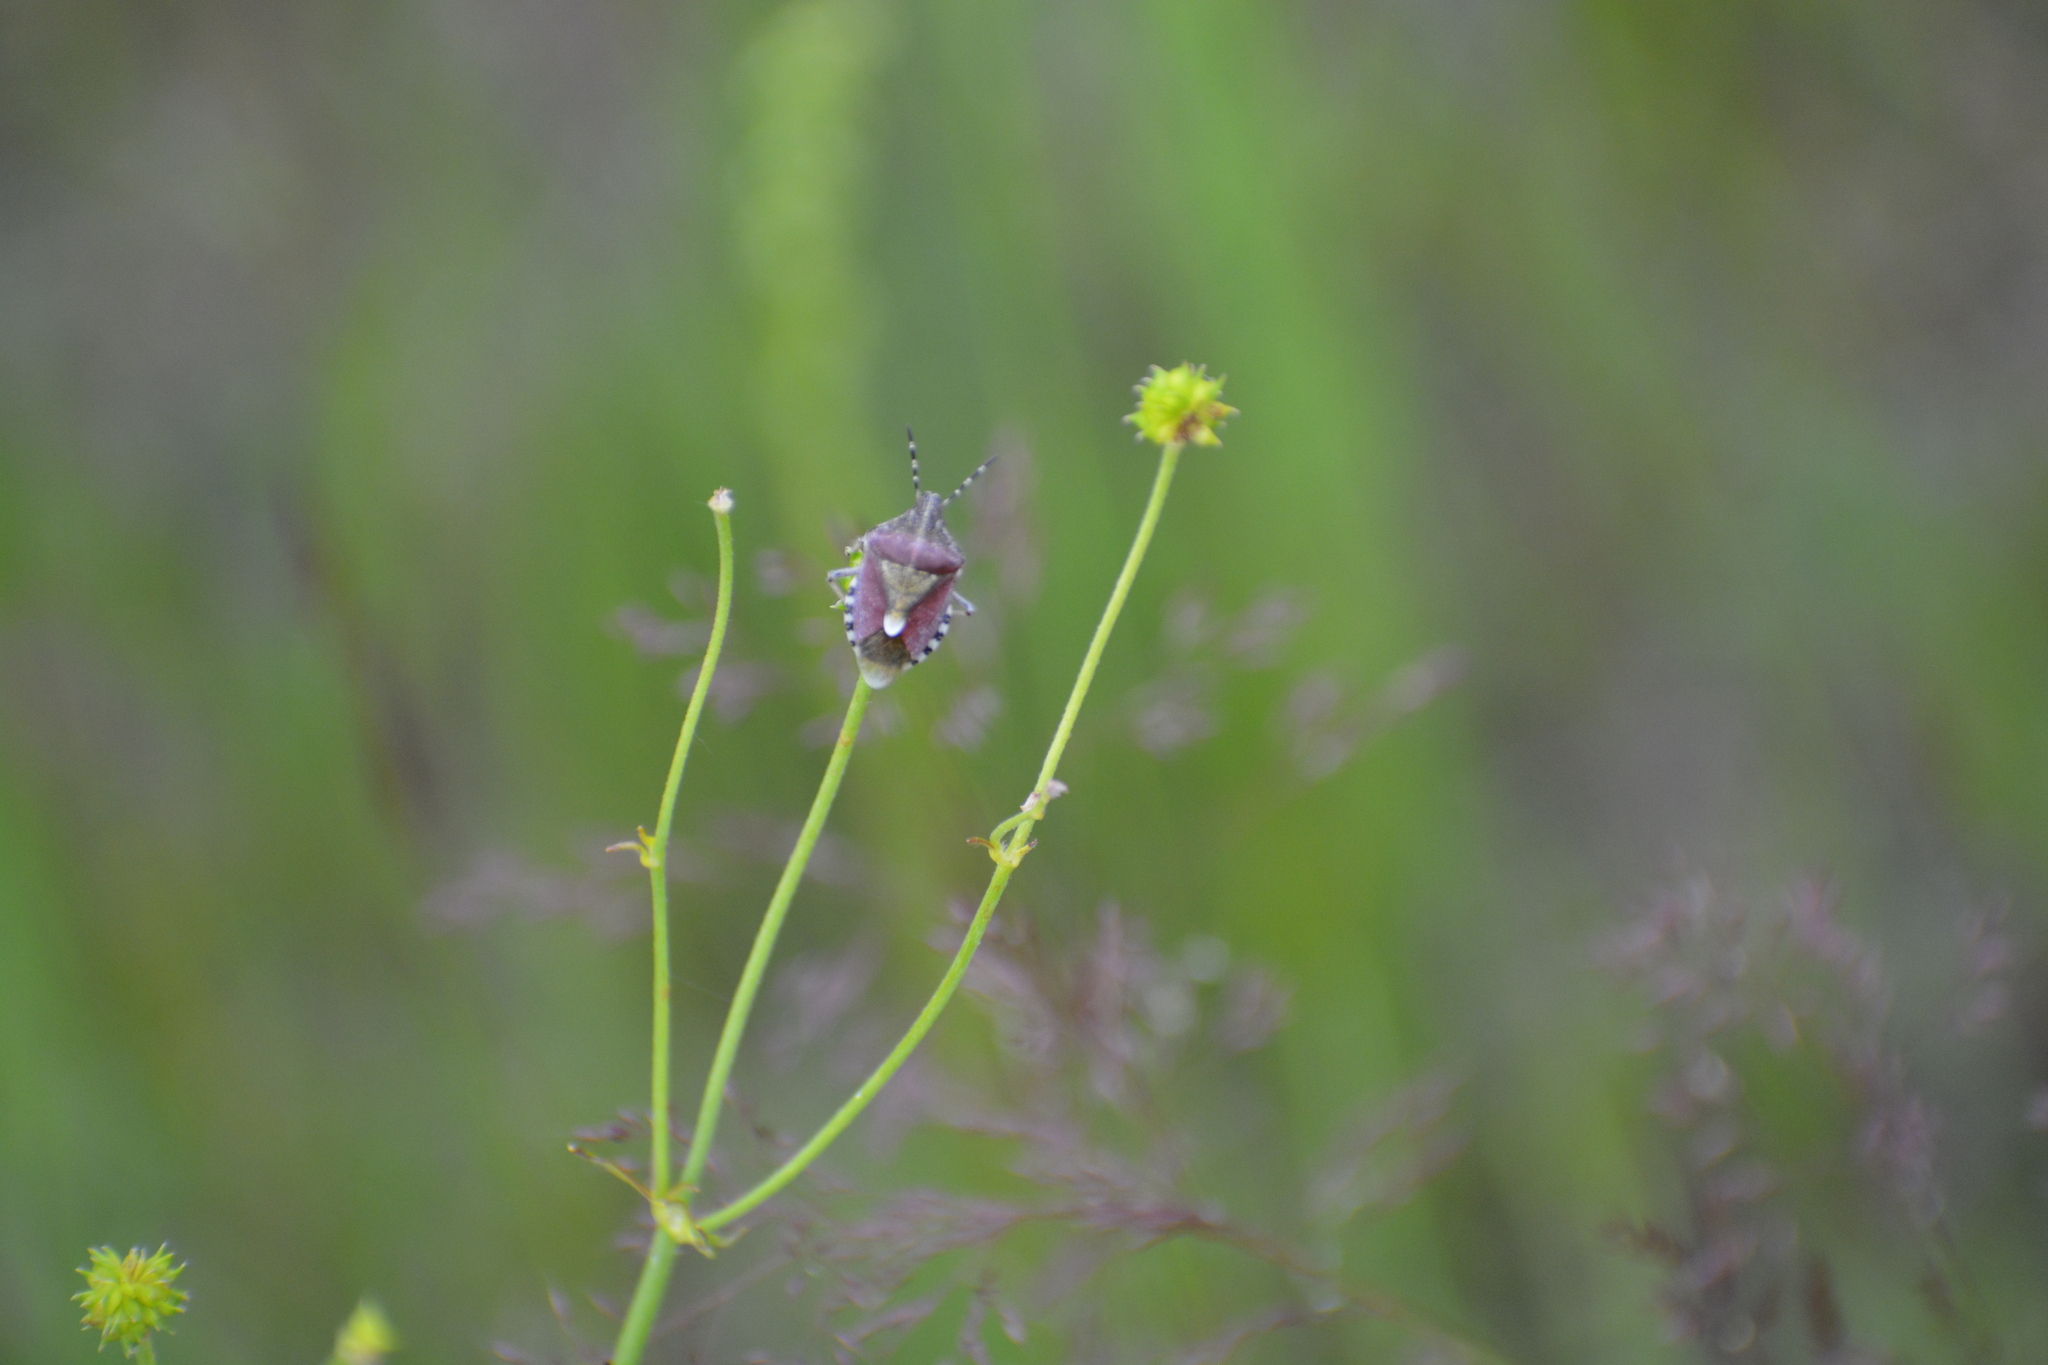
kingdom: Animalia
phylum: Arthropoda
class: Insecta
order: Hemiptera
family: Pentatomidae
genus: Dolycoris
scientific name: Dolycoris baccarum
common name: Sloe bug
